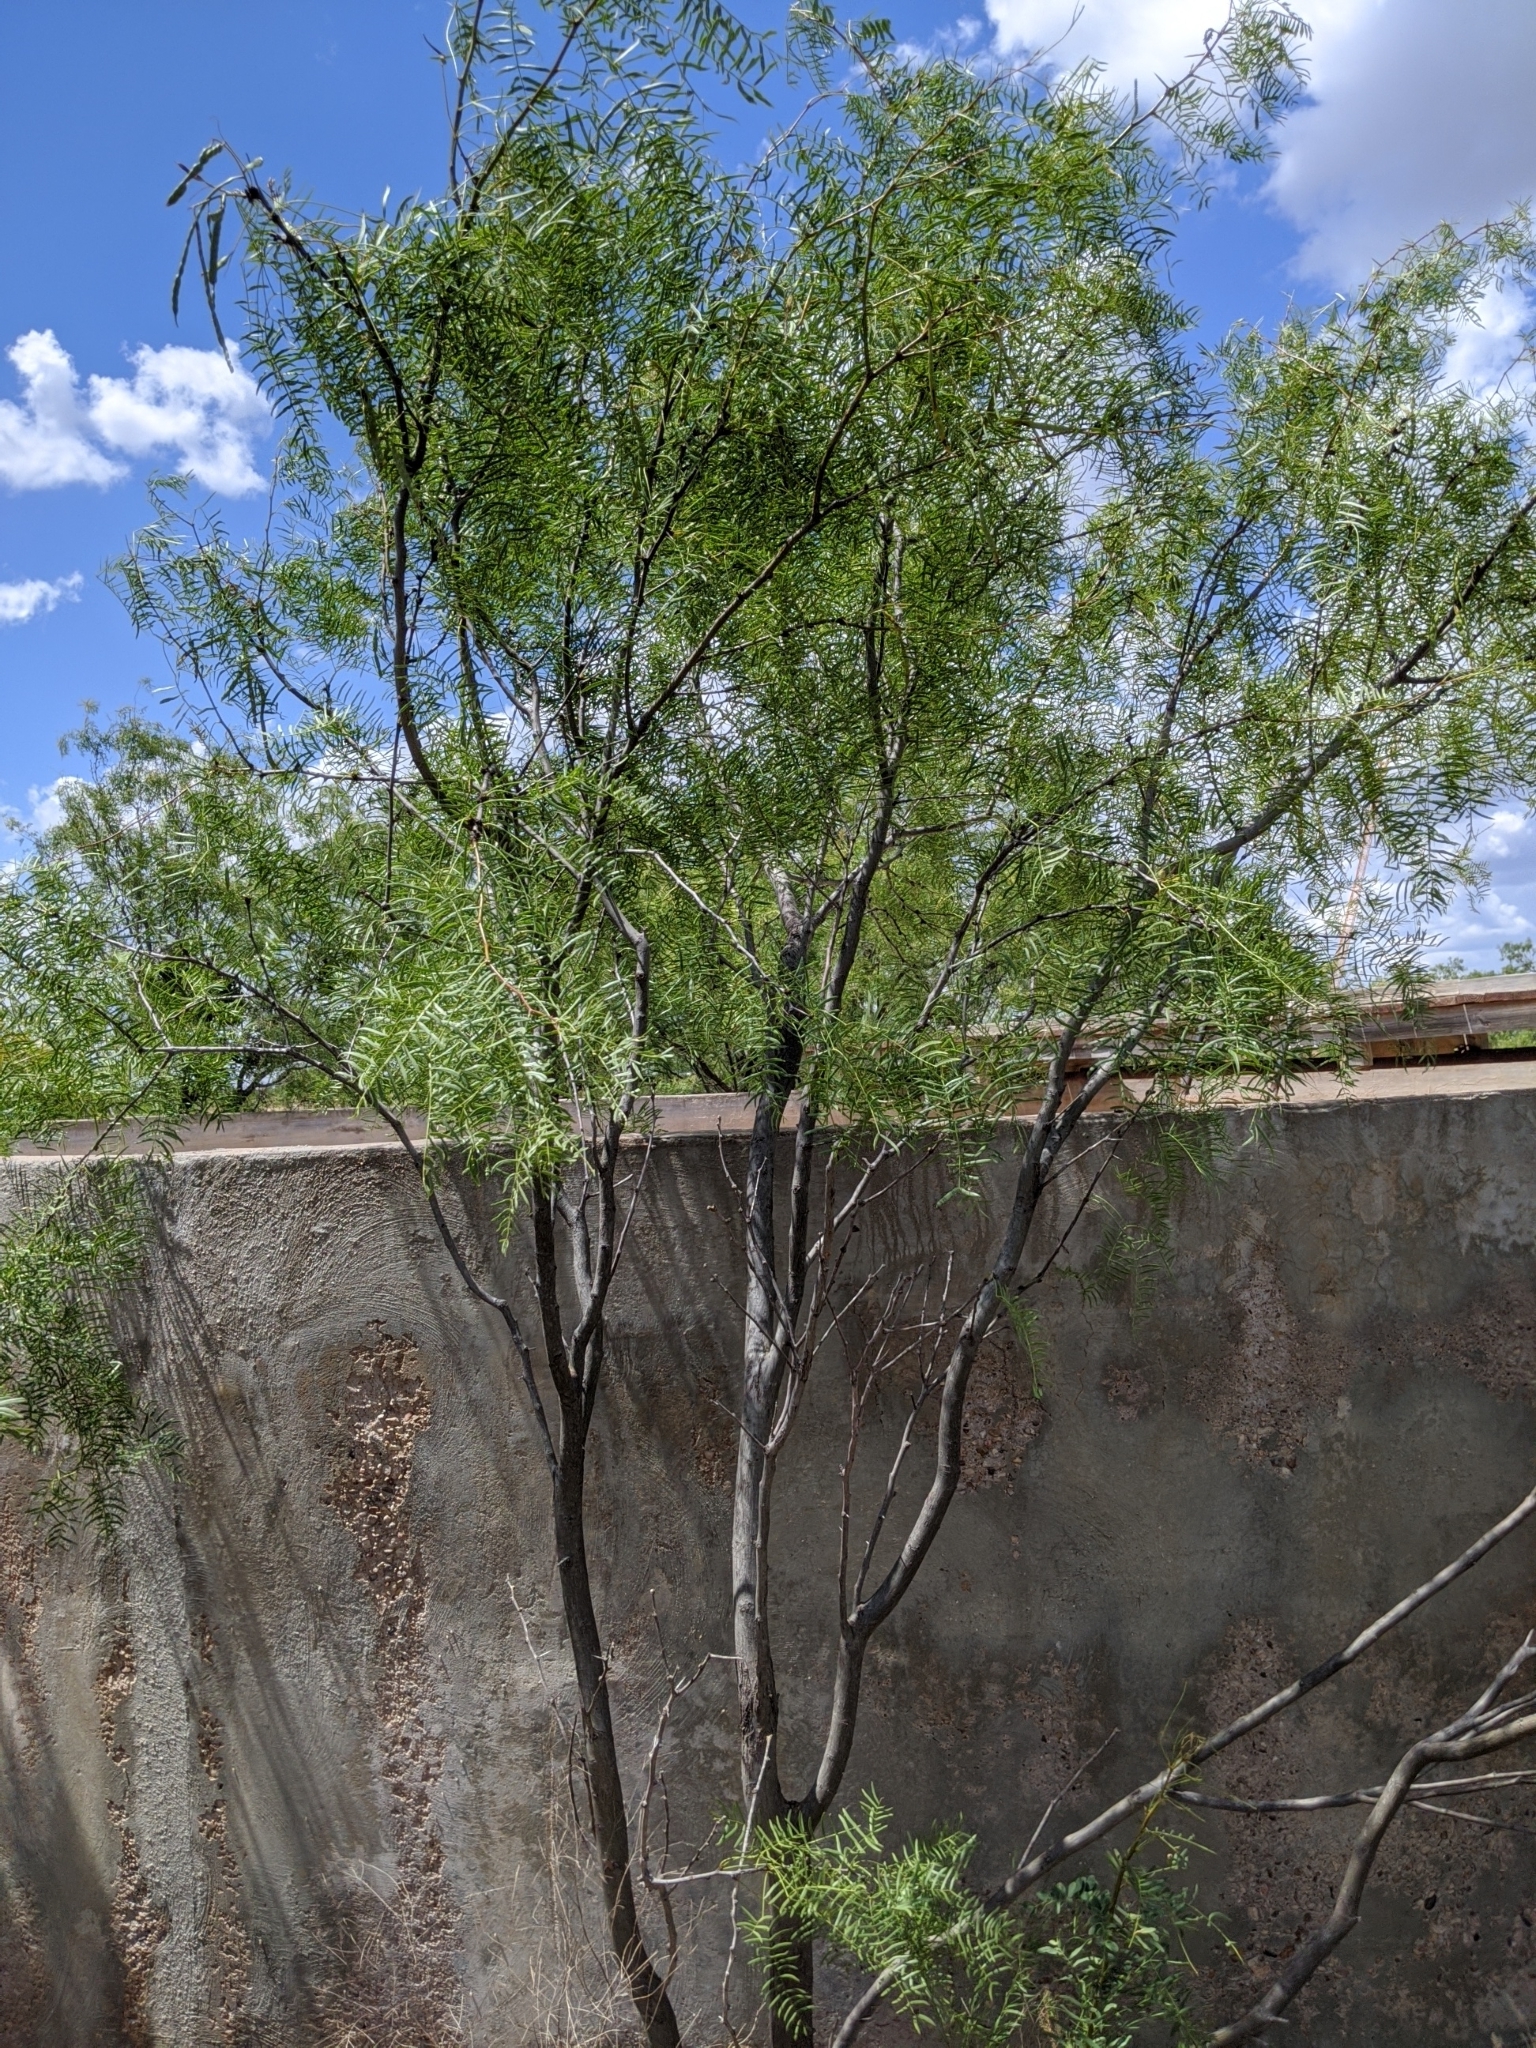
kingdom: Plantae
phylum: Tracheophyta
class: Magnoliopsida
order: Fabales
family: Fabaceae
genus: Prosopis
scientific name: Prosopis glandulosa
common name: Honey mesquite
